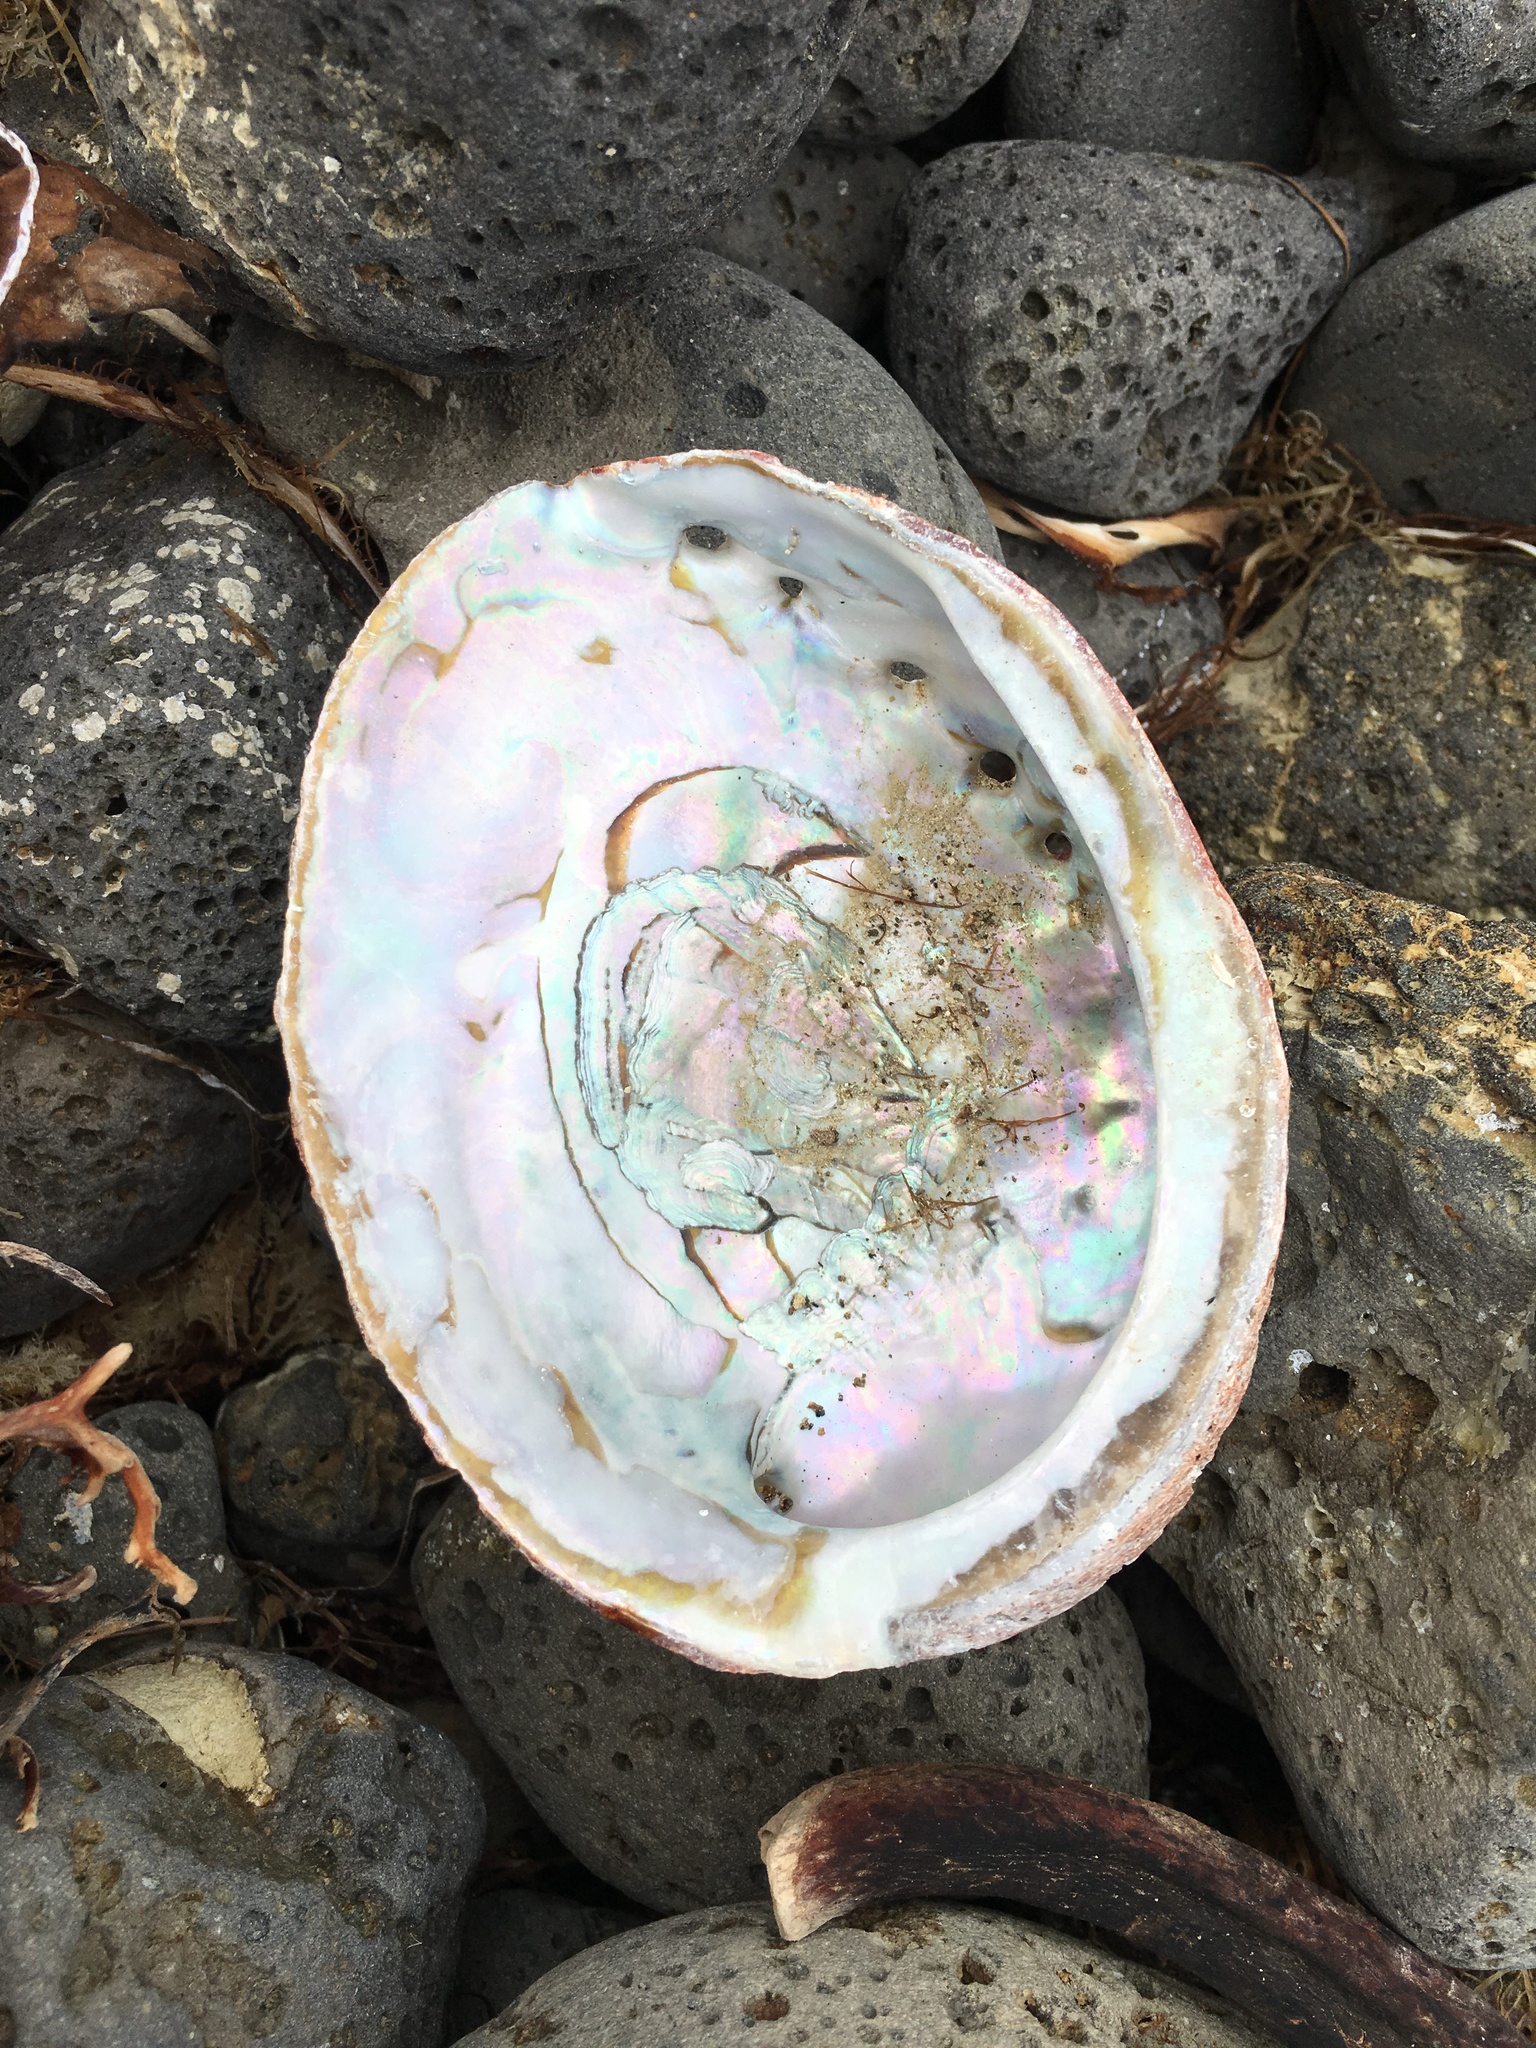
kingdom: Animalia
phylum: Mollusca
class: Gastropoda
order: Lepetellida
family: Haliotidae
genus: Haliotis
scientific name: Haliotis rufescens
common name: Red abalone
